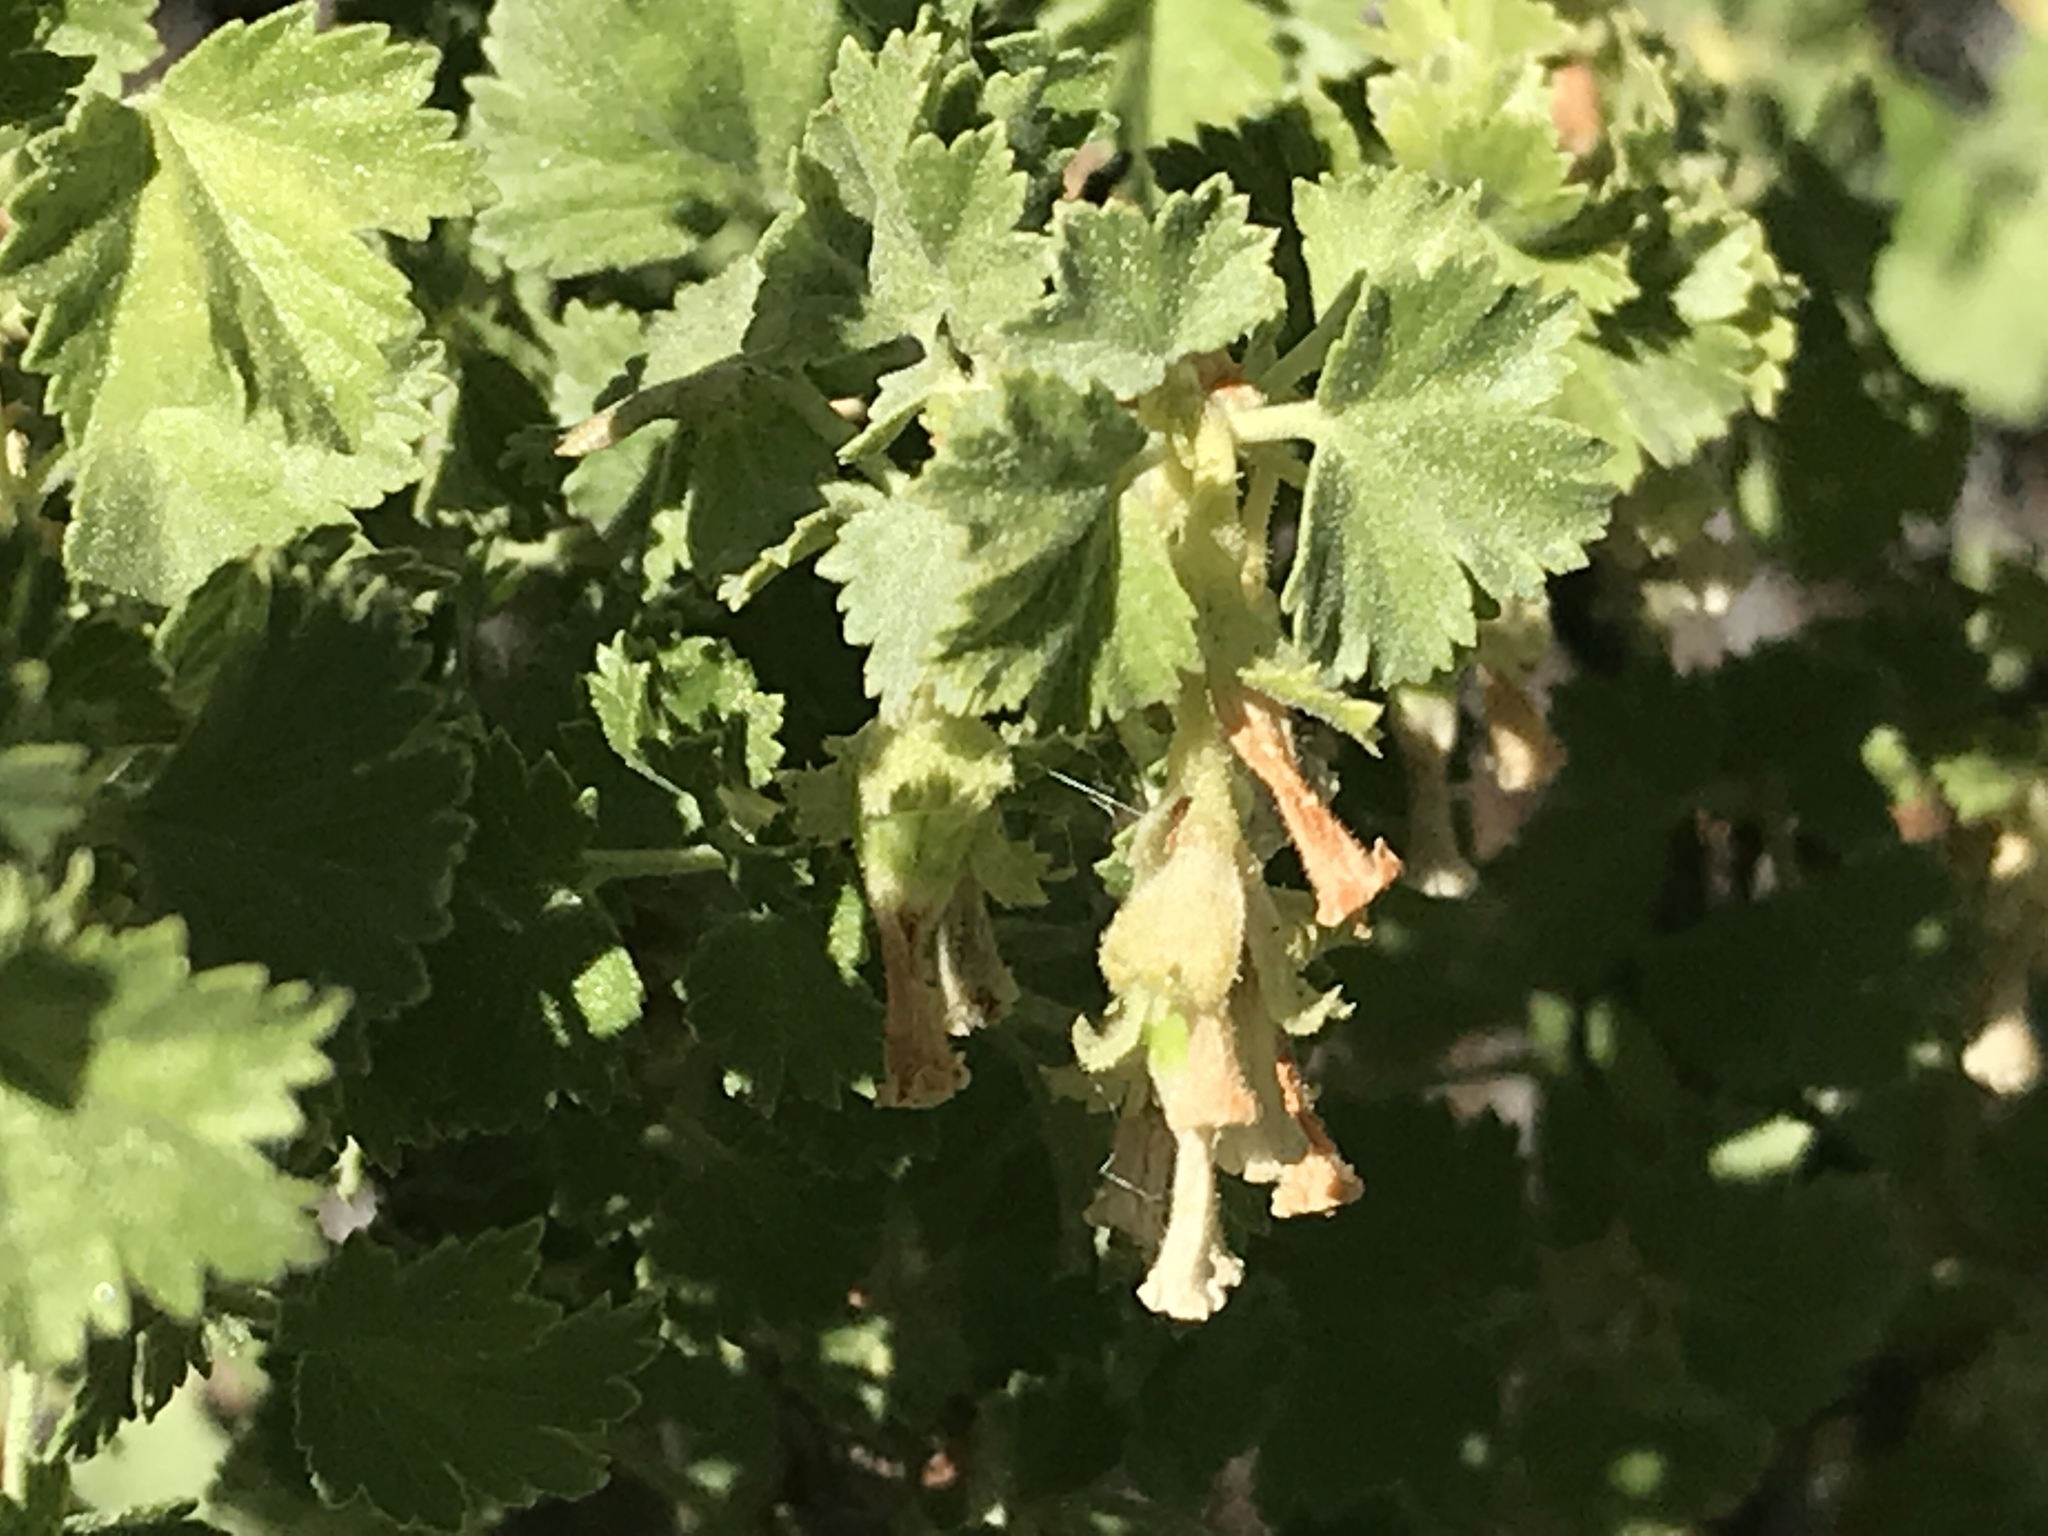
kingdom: Plantae
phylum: Tracheophyta
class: Magnoliopsida
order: Saxifragales
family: Grossulariaceae
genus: Ribes
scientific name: Ribes cereum
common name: Wax currant
